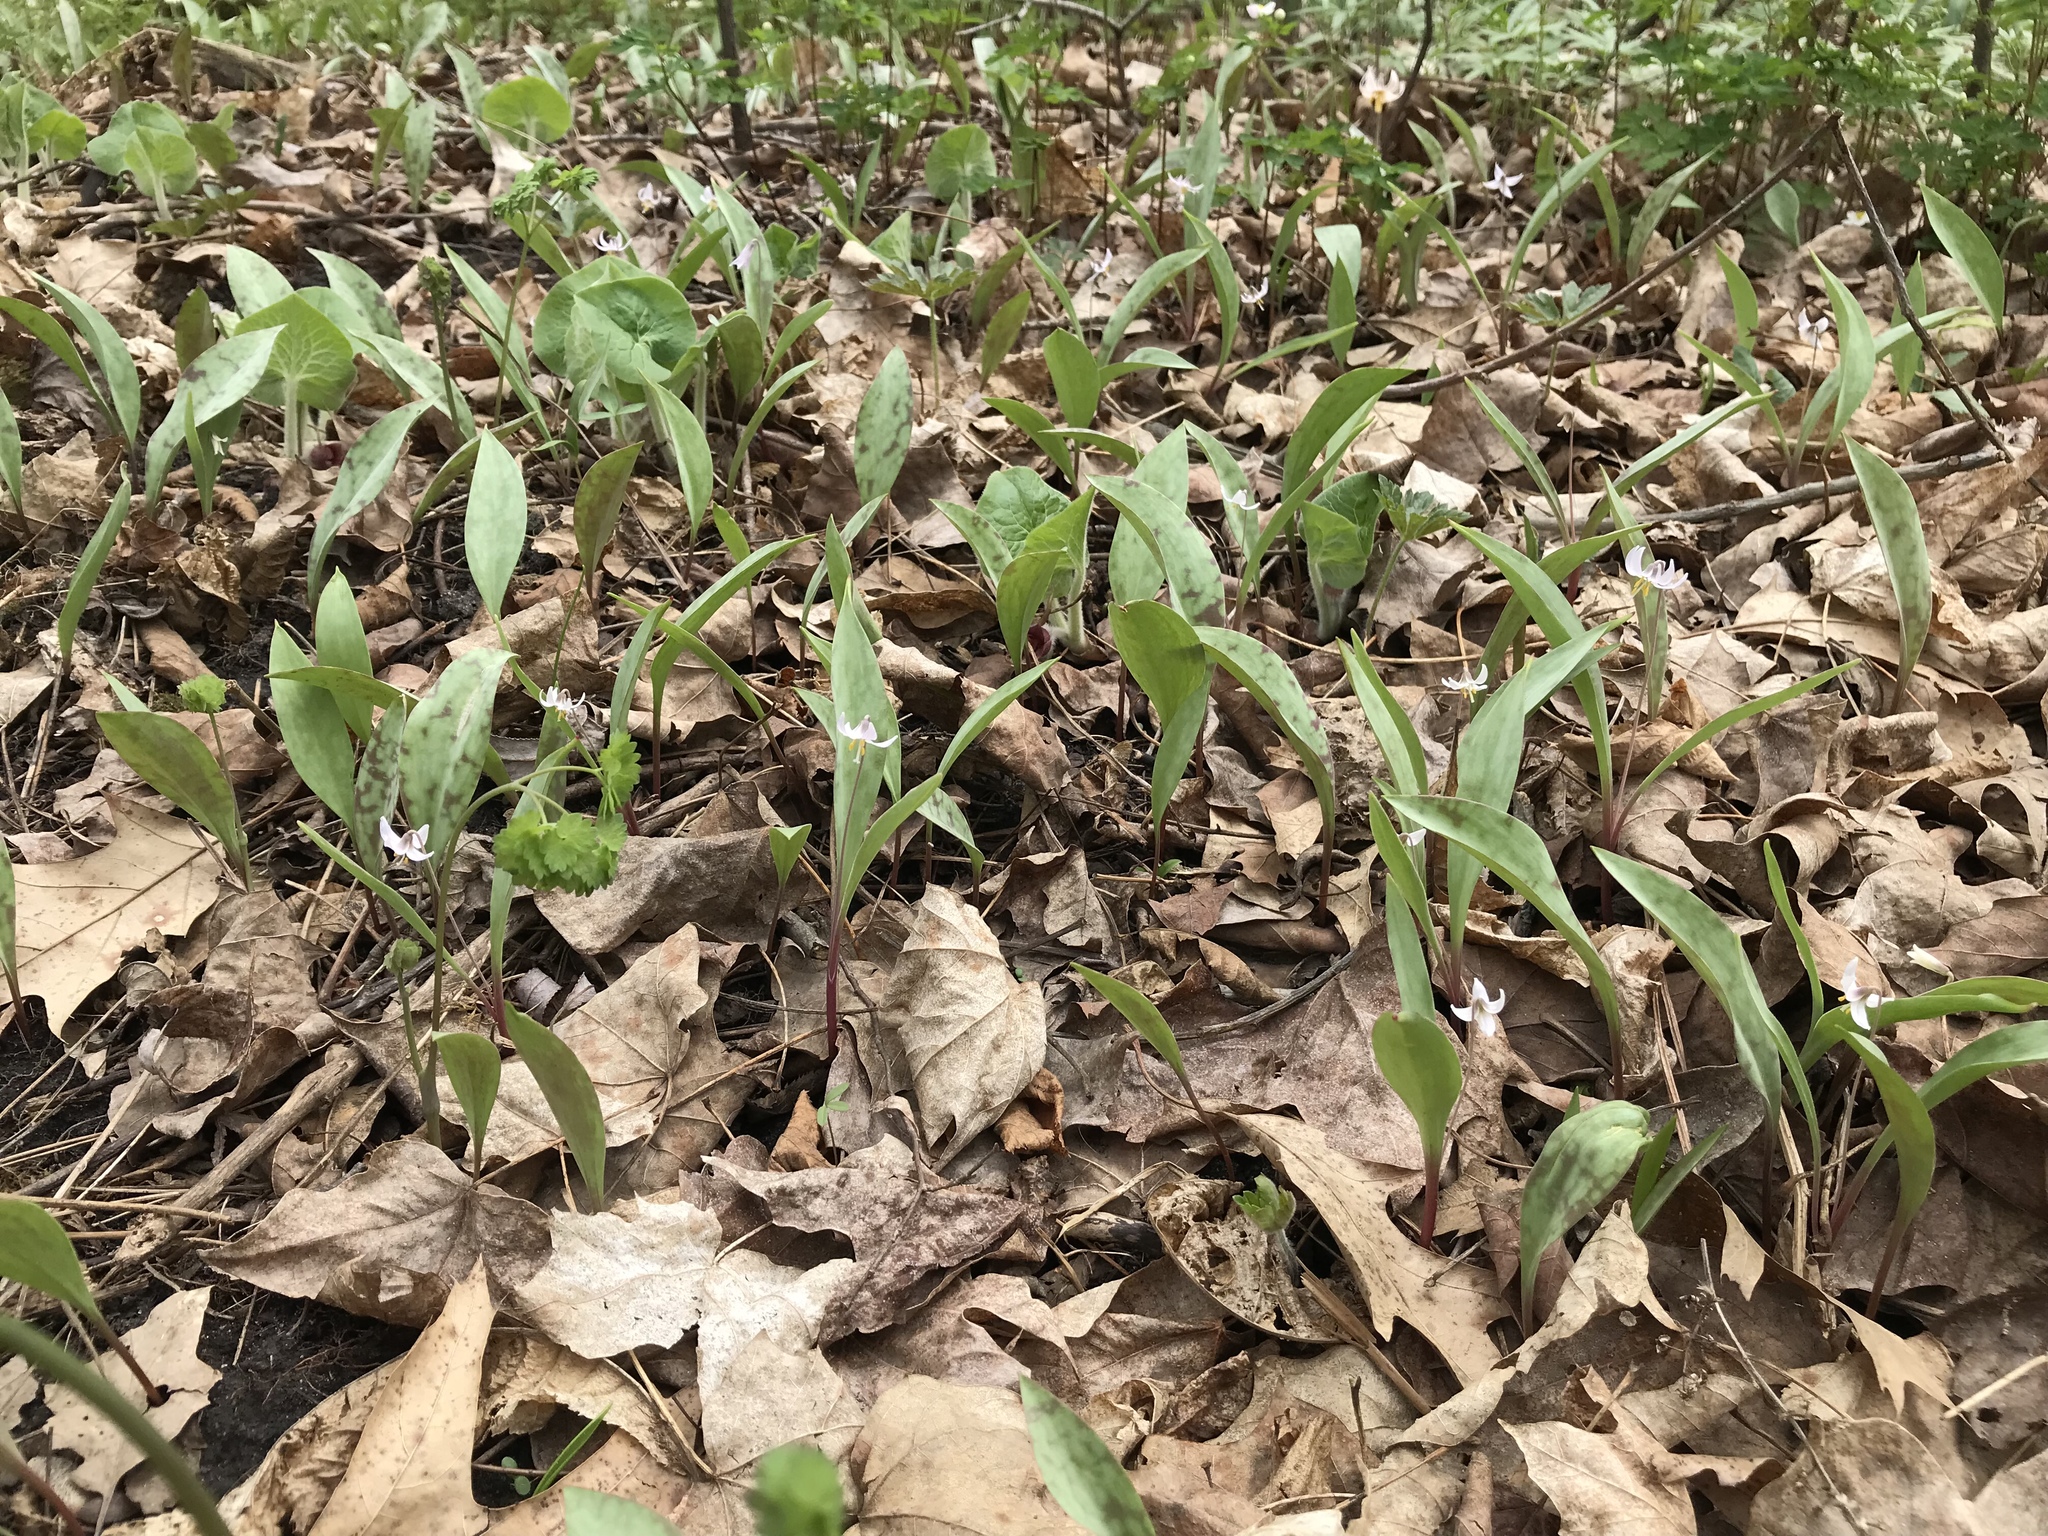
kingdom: Plantae
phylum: Tracheophyta
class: Liliopsida
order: Liliales
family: Liliaceae
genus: Erythronium
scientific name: Erythronium propullans
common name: Minnesota dwarf trout-lily
